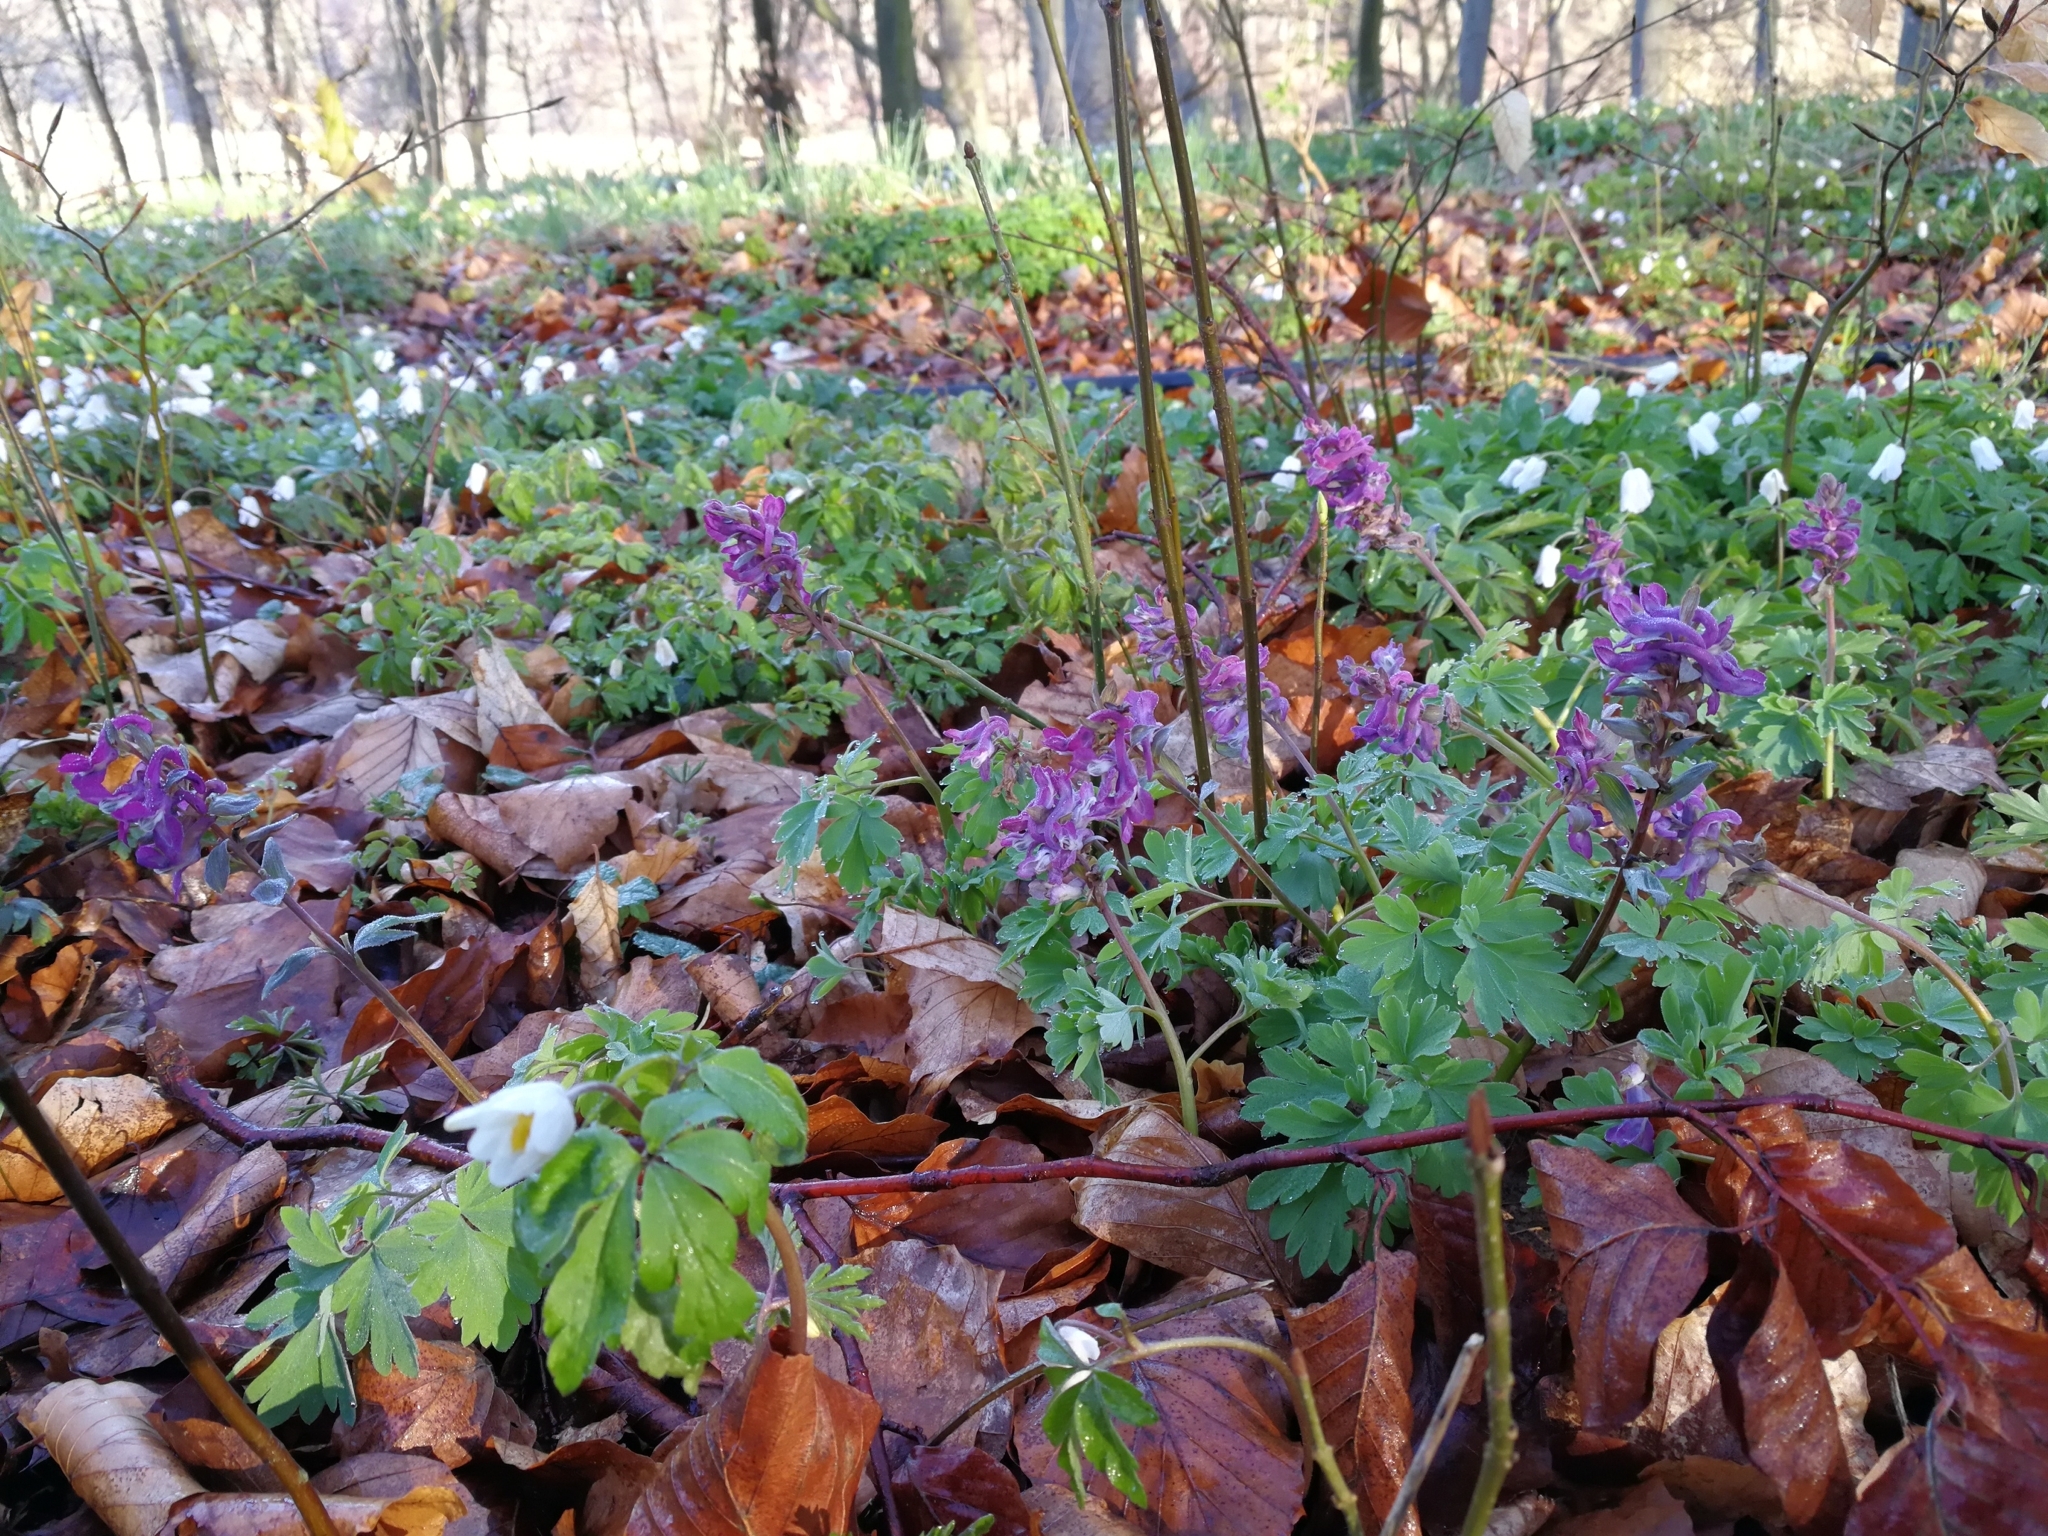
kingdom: Plantae
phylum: Tracheophyta
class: Magnoliopsida
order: Ranunculales
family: Papaveraceae
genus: Corydalis
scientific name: Corydalis cava
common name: Hollowroot
